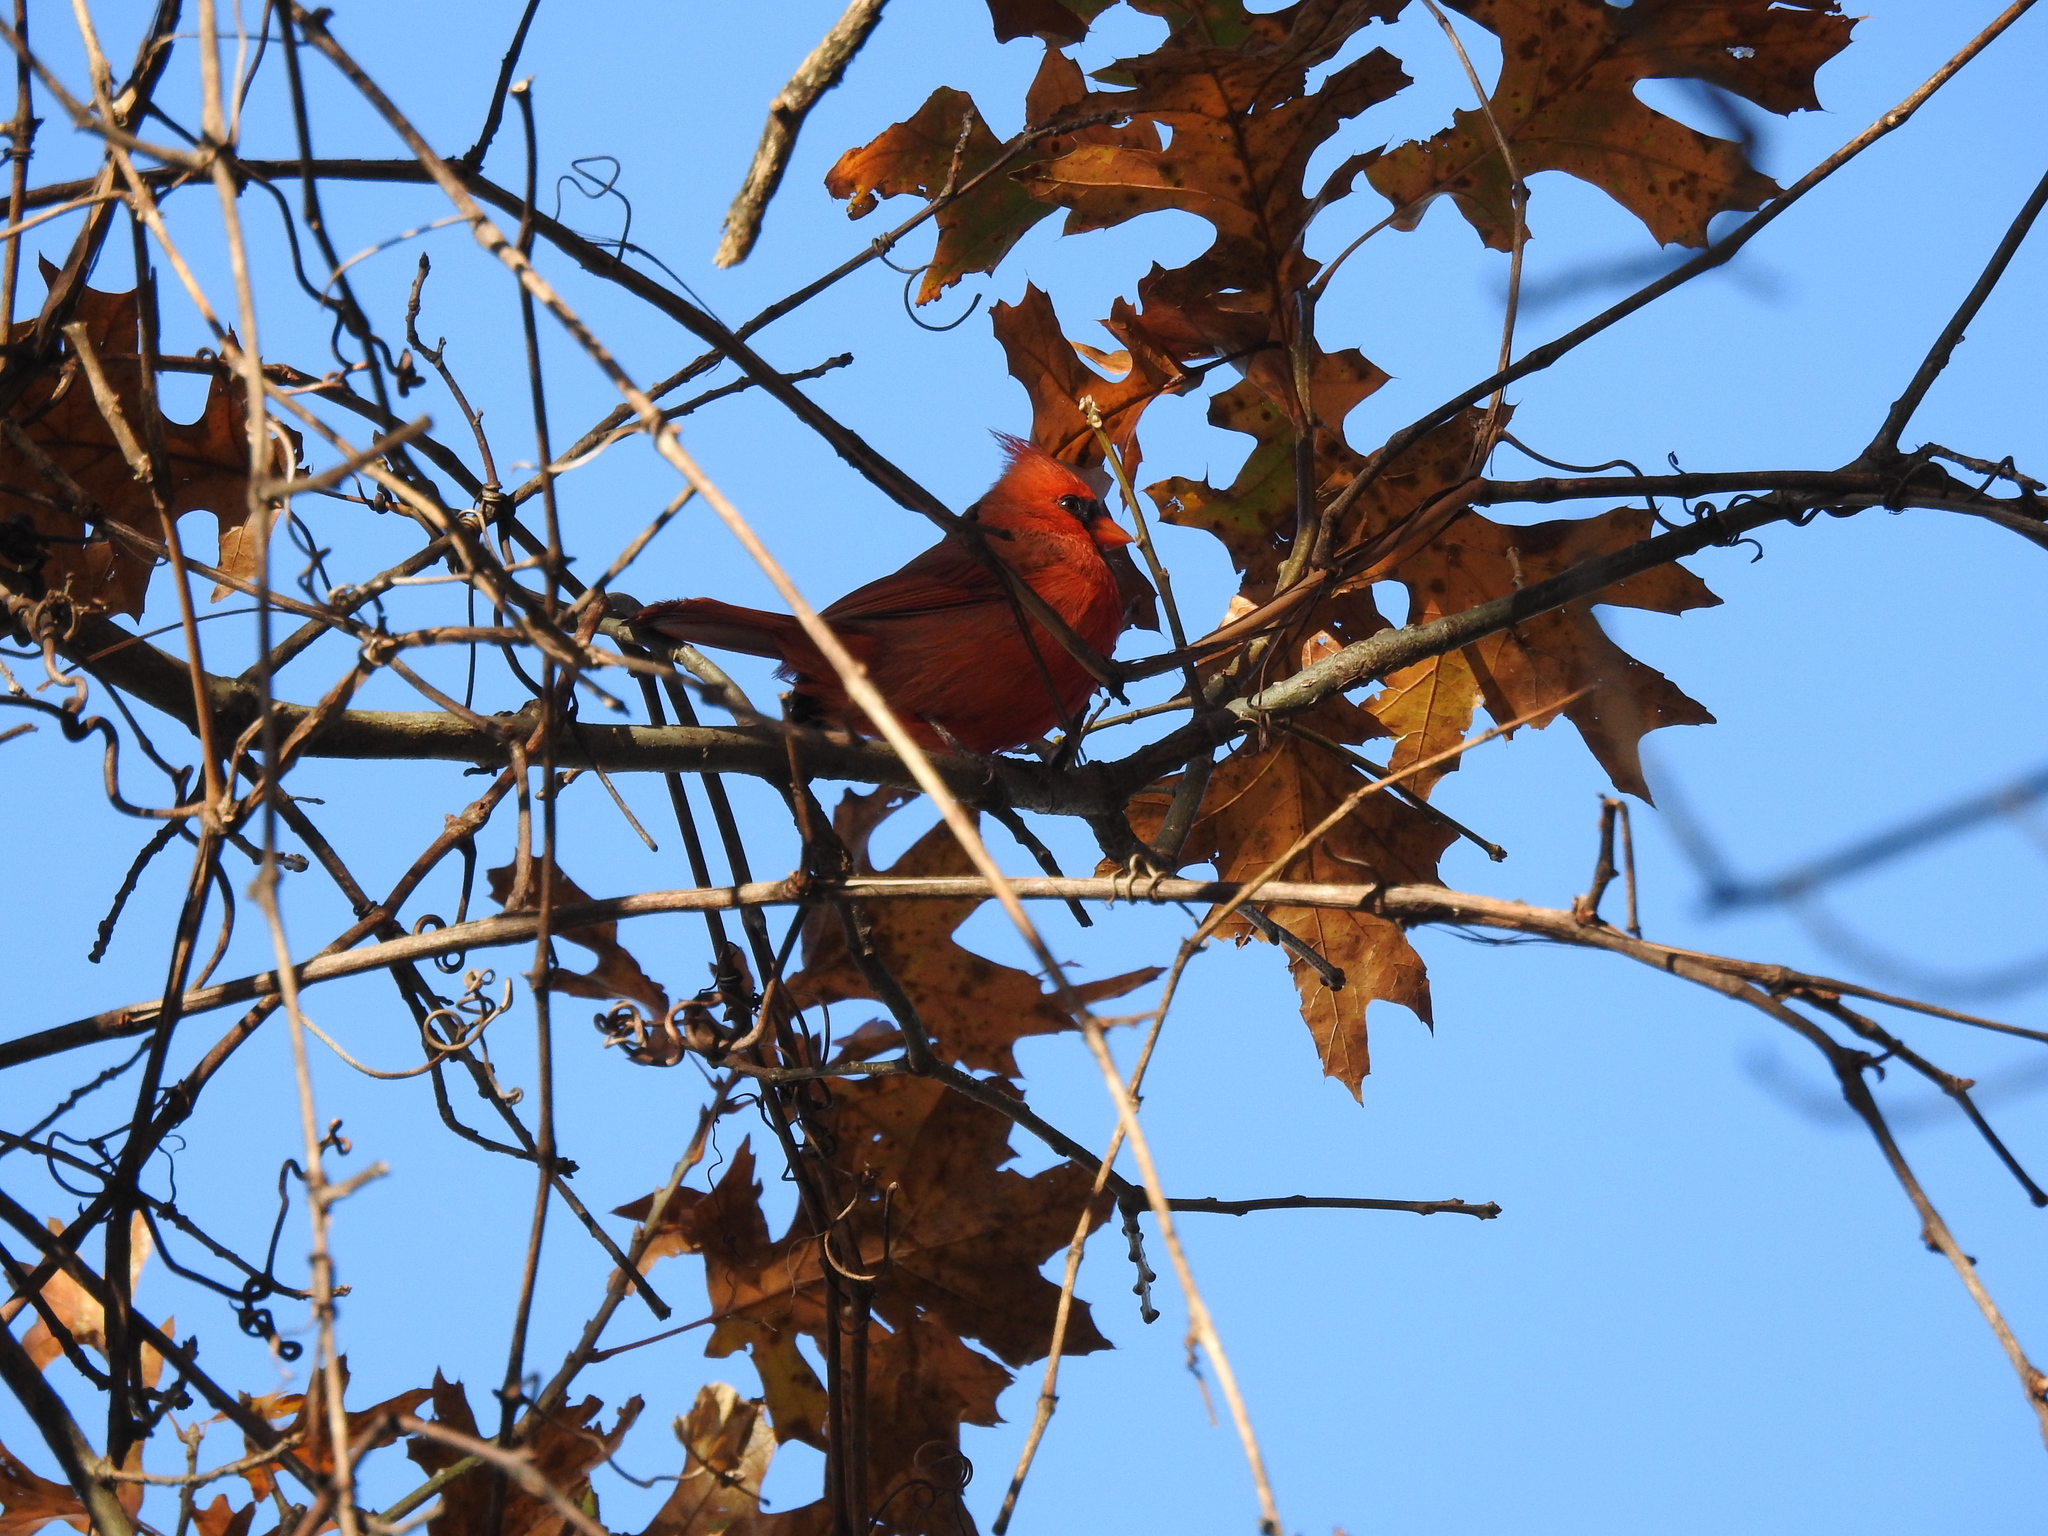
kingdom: Animalia
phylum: Chordata
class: Aves
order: Passeriformes
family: Cardinalidae
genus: Cardinalis
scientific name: Cardinalis cardinalis
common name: Northern cardinal
